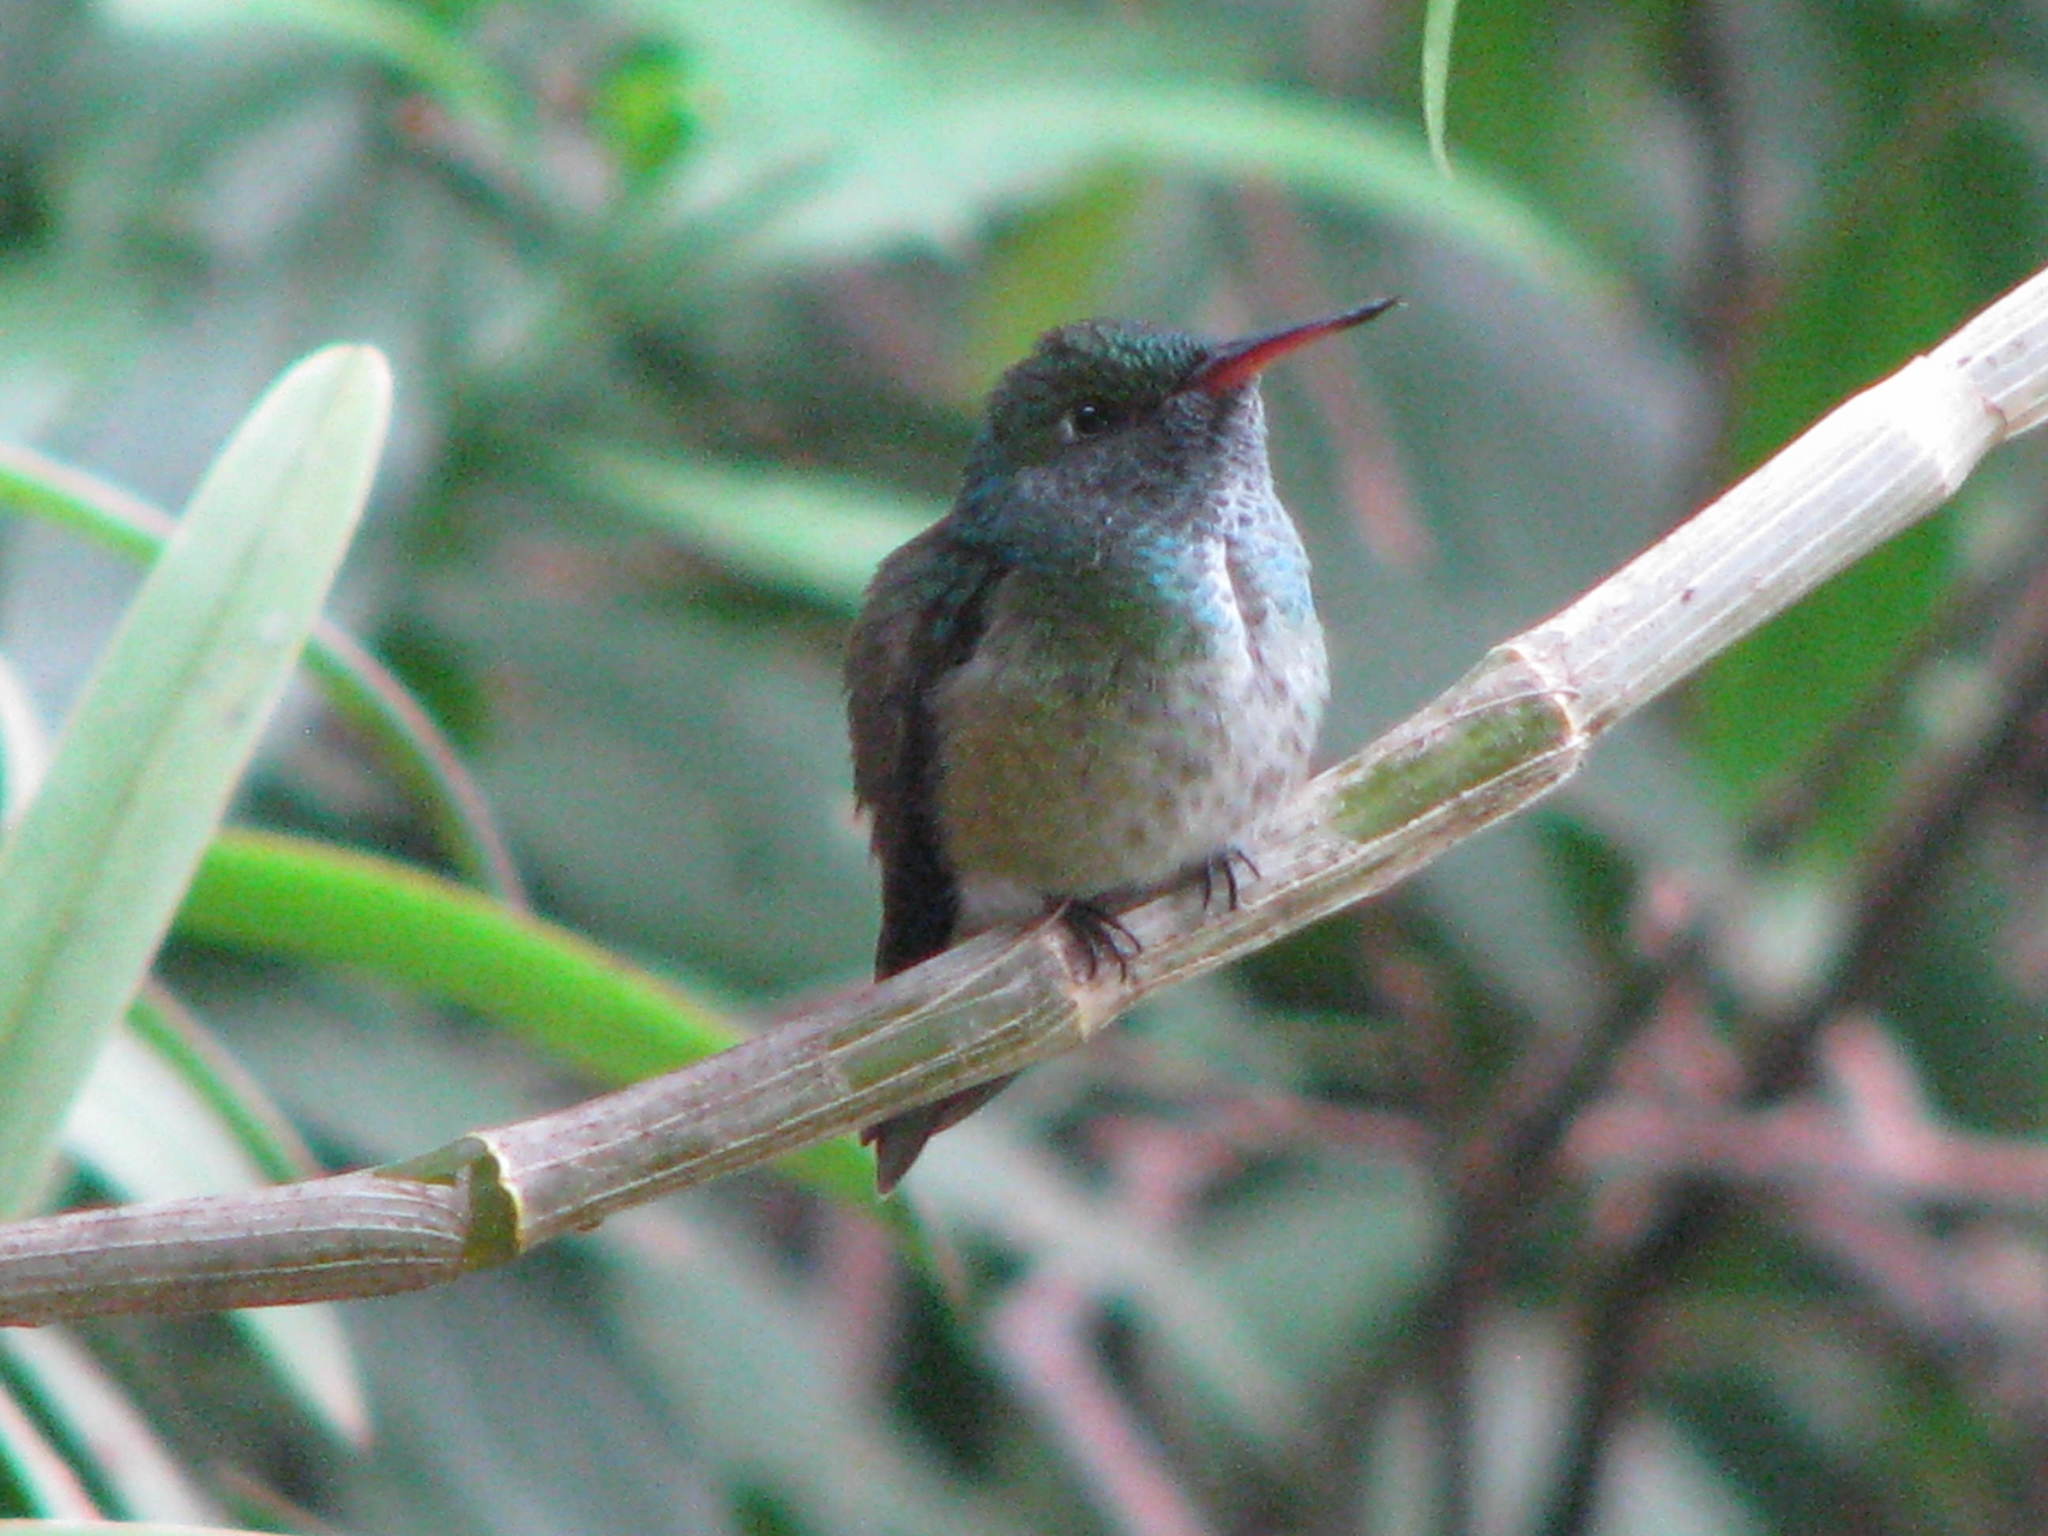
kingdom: Animalia
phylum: Chordata
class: Aves
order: Apodiformes
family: Trochilidae
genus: Chrysuronia
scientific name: Chrysuronia versicolor
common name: Versicolored emerald
